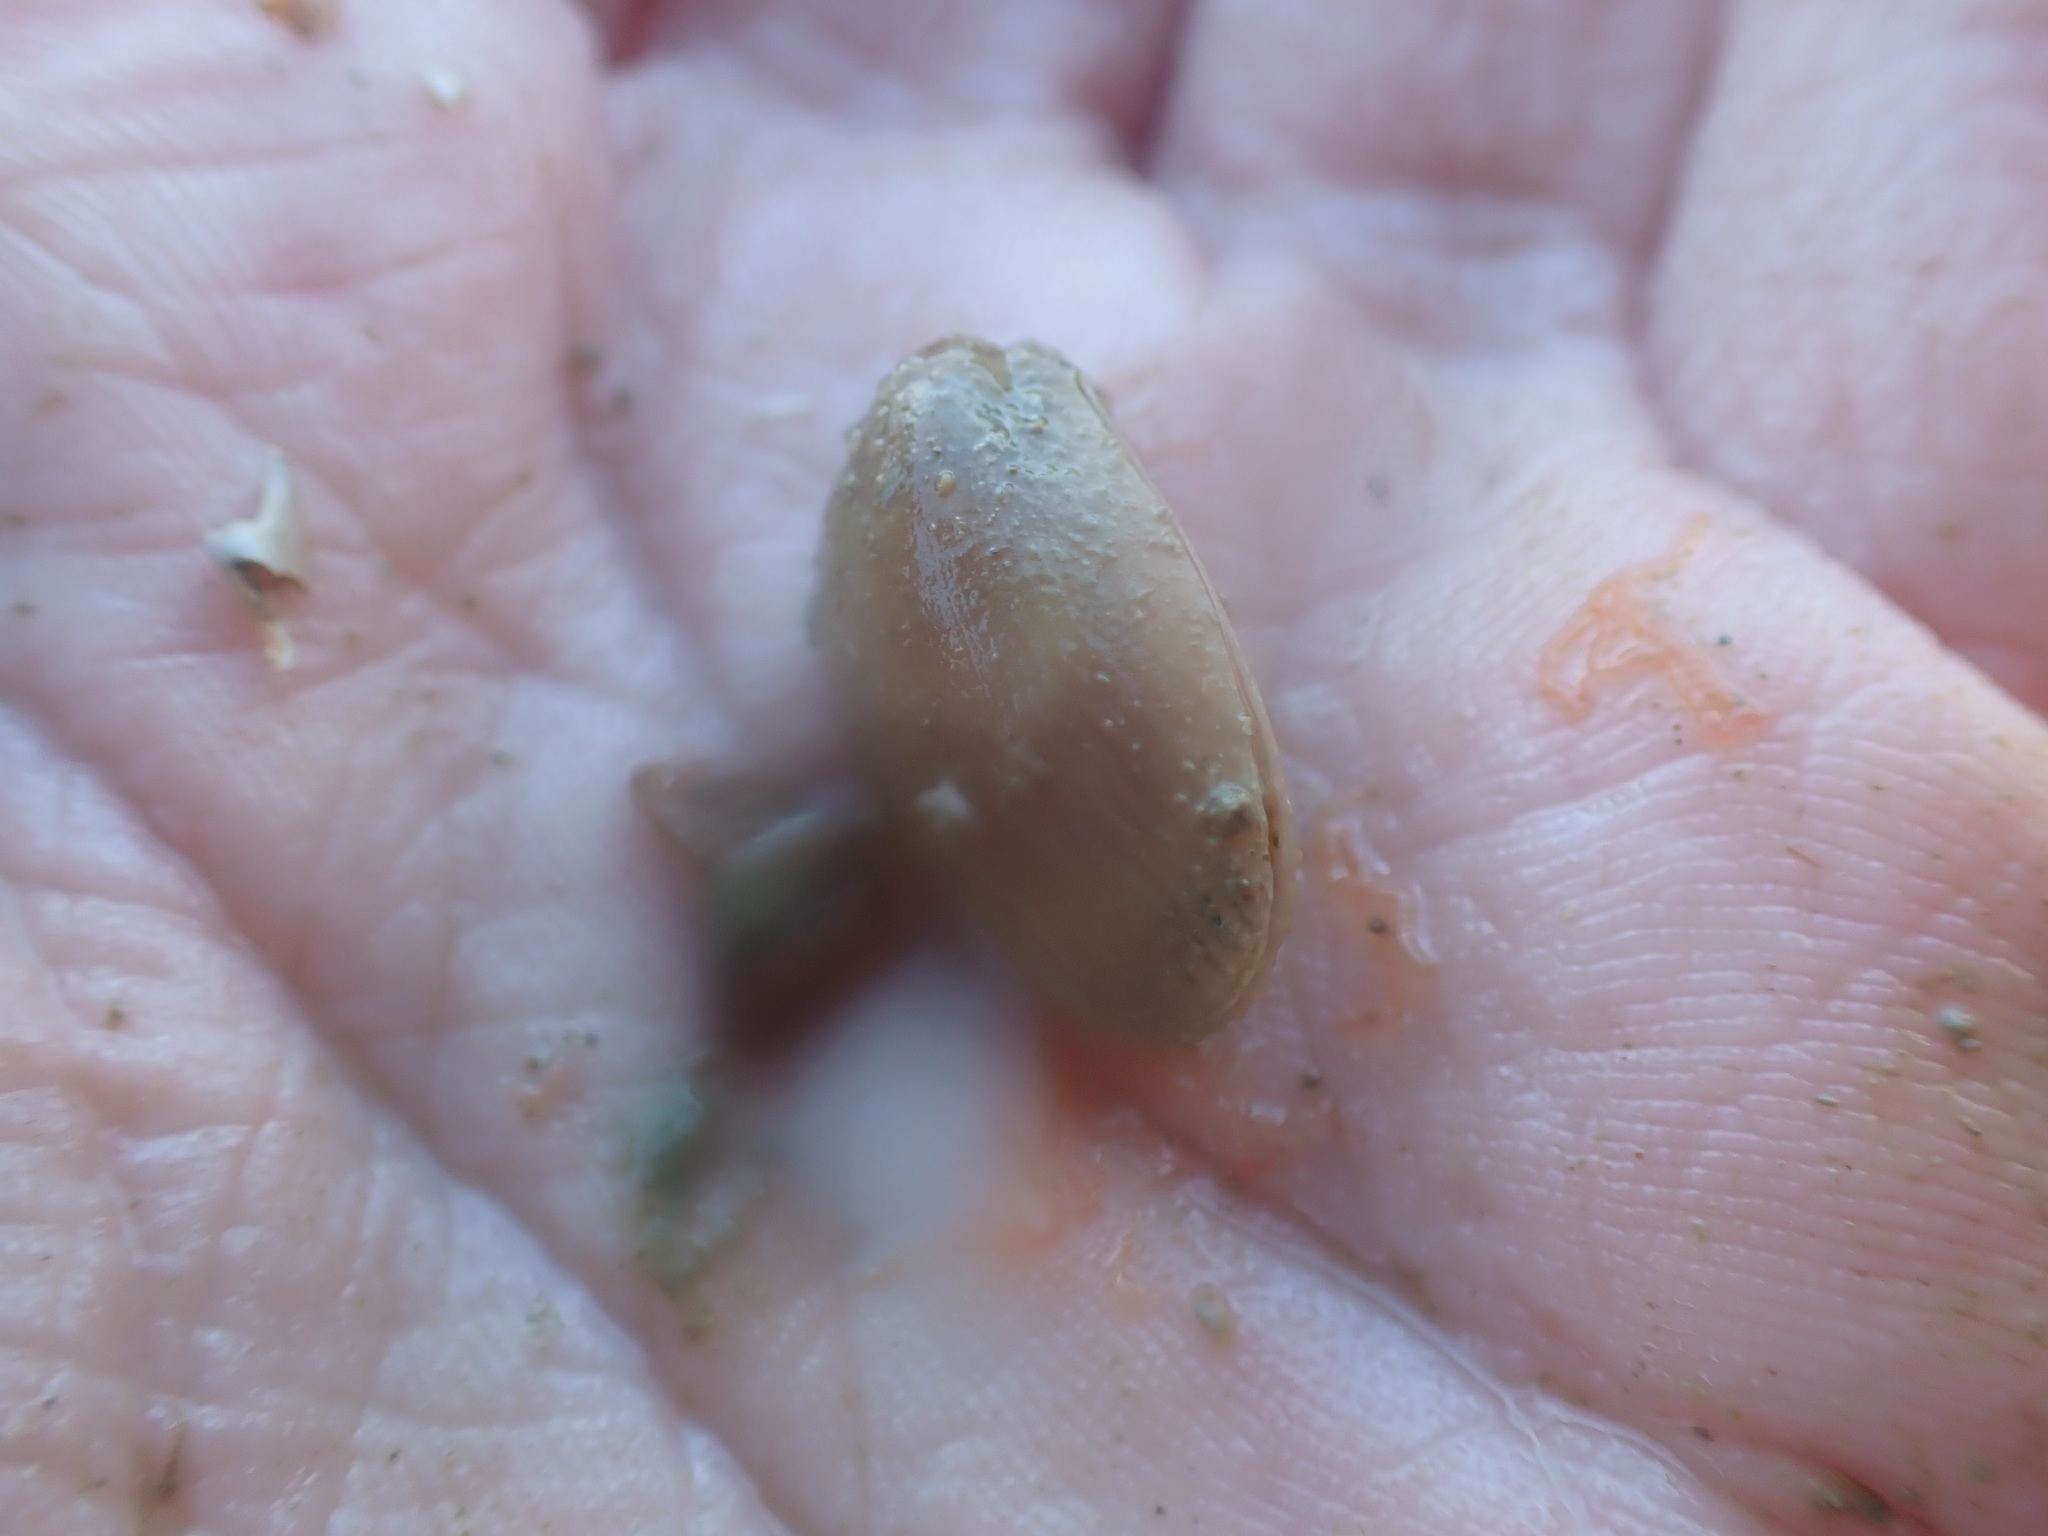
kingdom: Animalia
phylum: Mollusca
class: Bivalvia
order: Limida
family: Limidae
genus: Limaria
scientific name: Limaria orientalis
